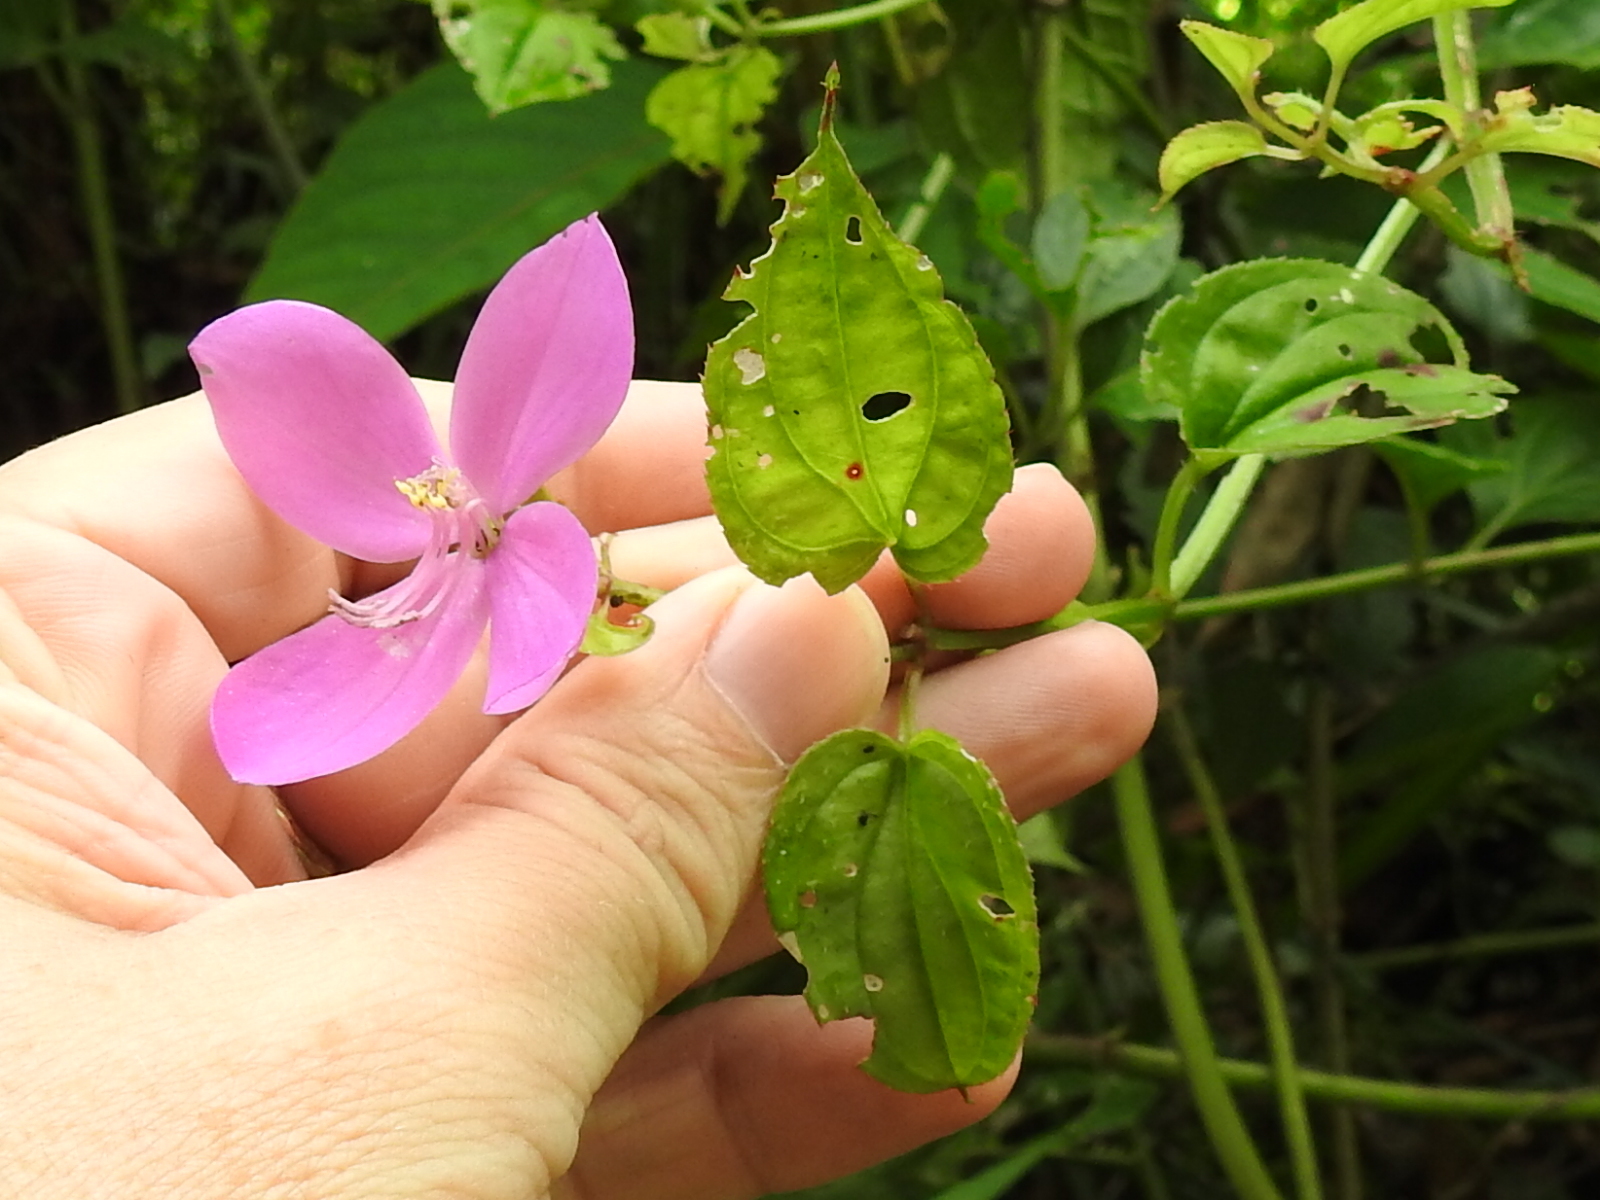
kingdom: Plantae
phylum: Tracheophyta
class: Magnoliopsida
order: Myrtales
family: Melastomataceae
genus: Arthrostemma
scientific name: Arthrostemma ciliatum
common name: Everblooming eavender
